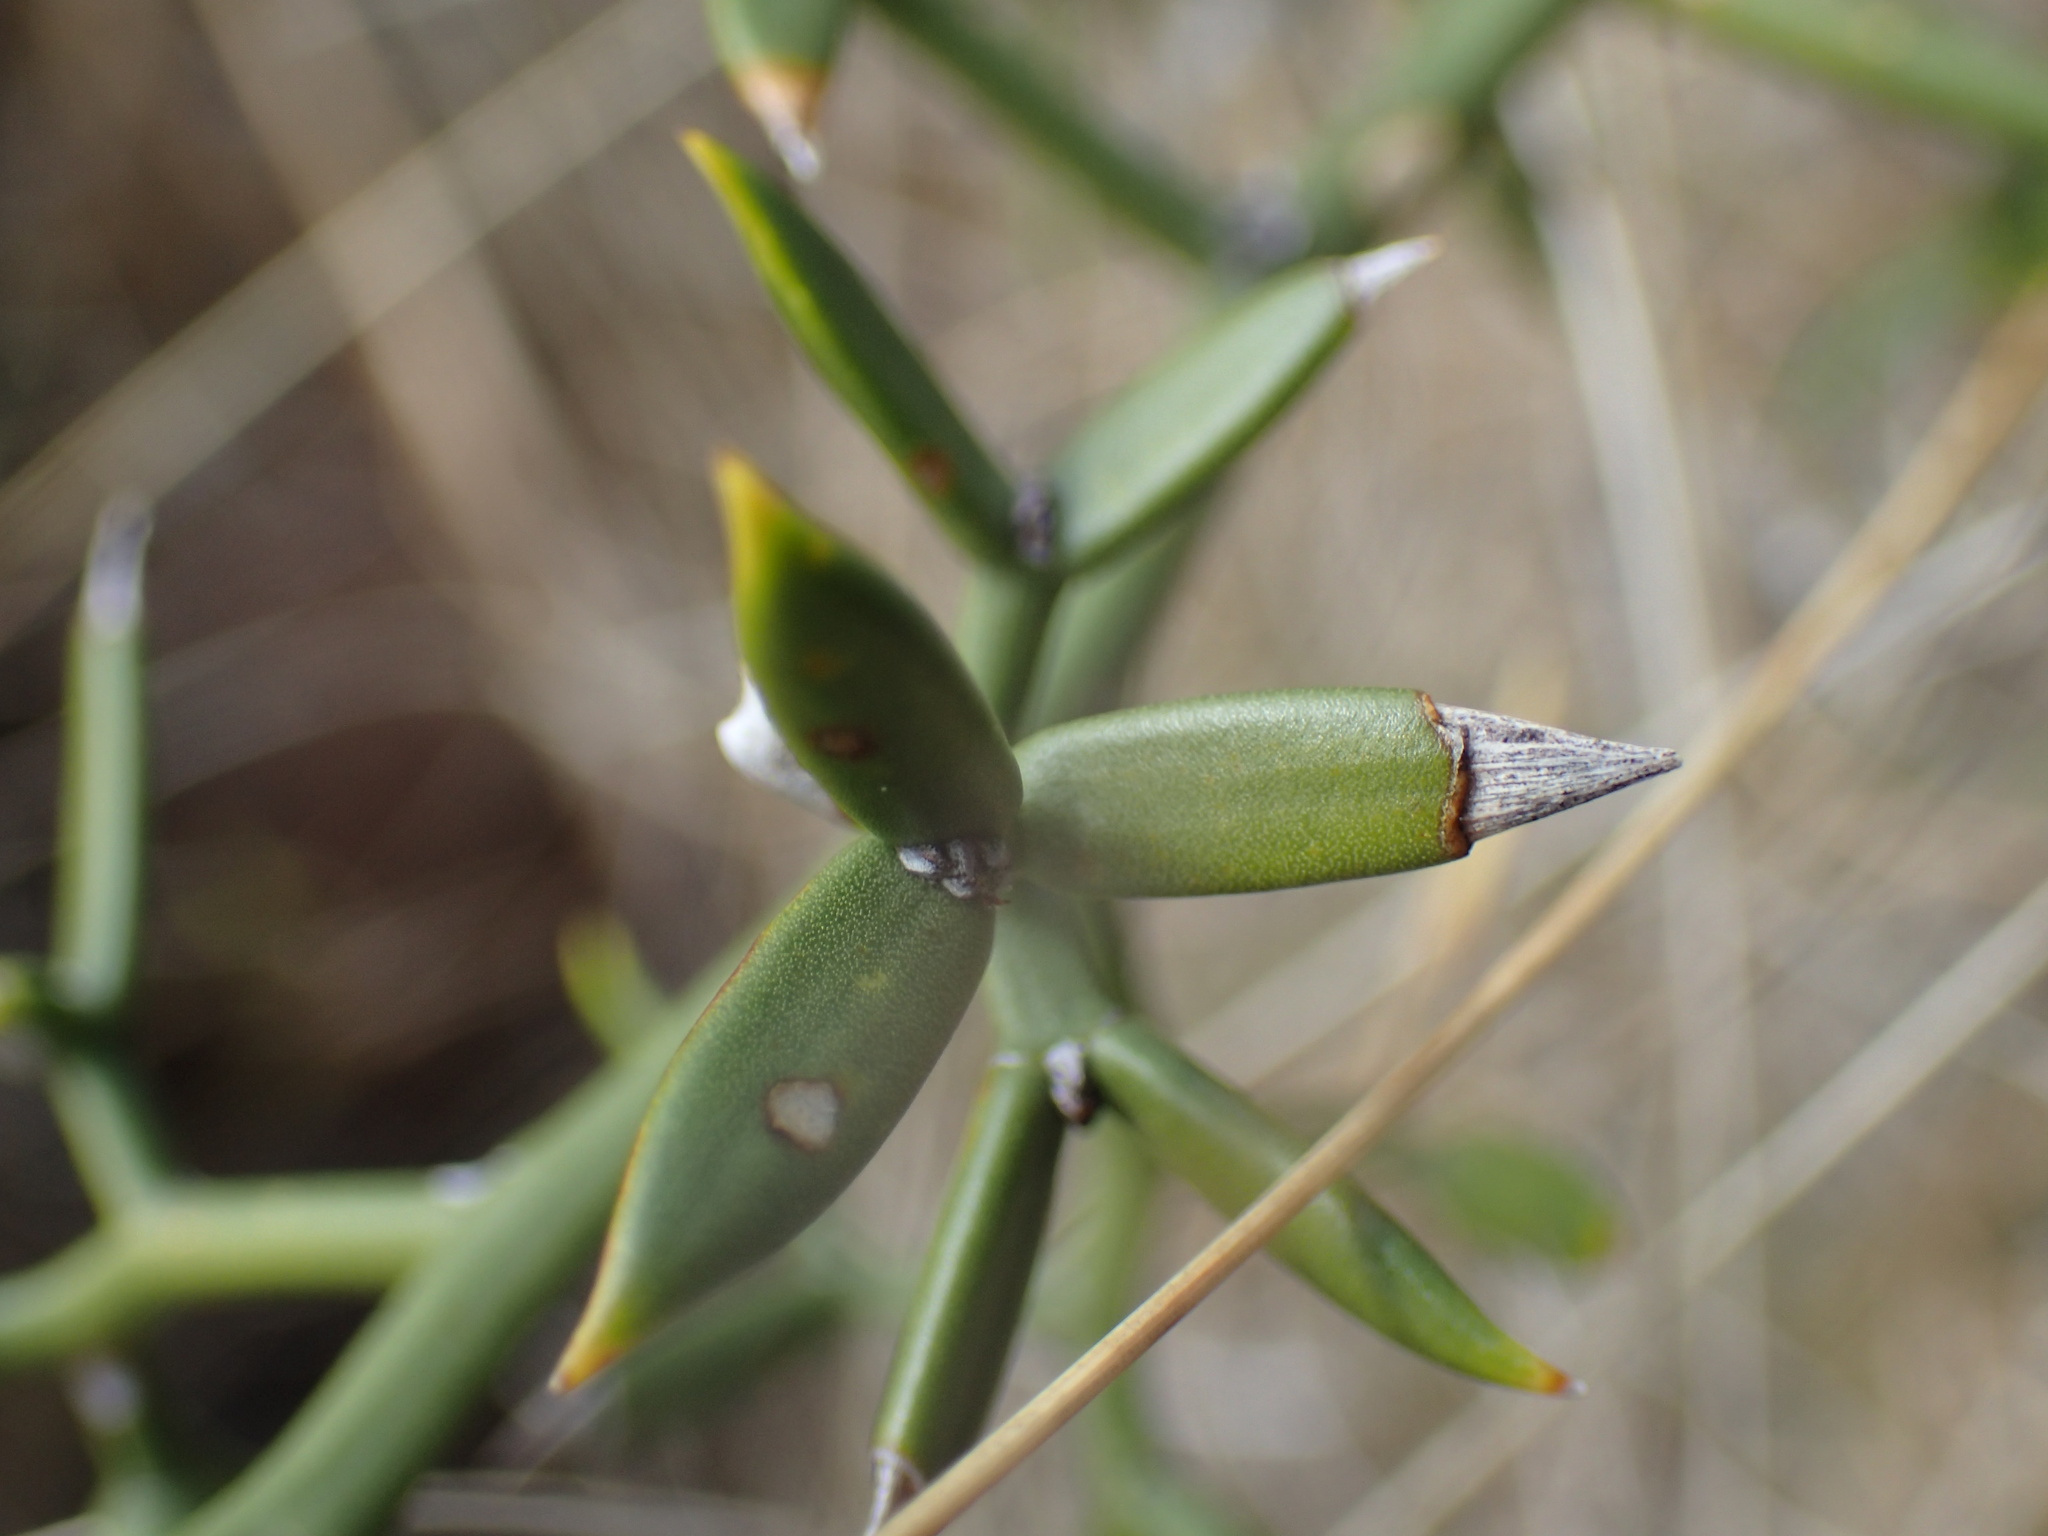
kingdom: Plantae
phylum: Tracheophyta
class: Liliopsida
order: Asparagales
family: Asparagaceae
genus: Asparagus
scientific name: Asparagus striatus
